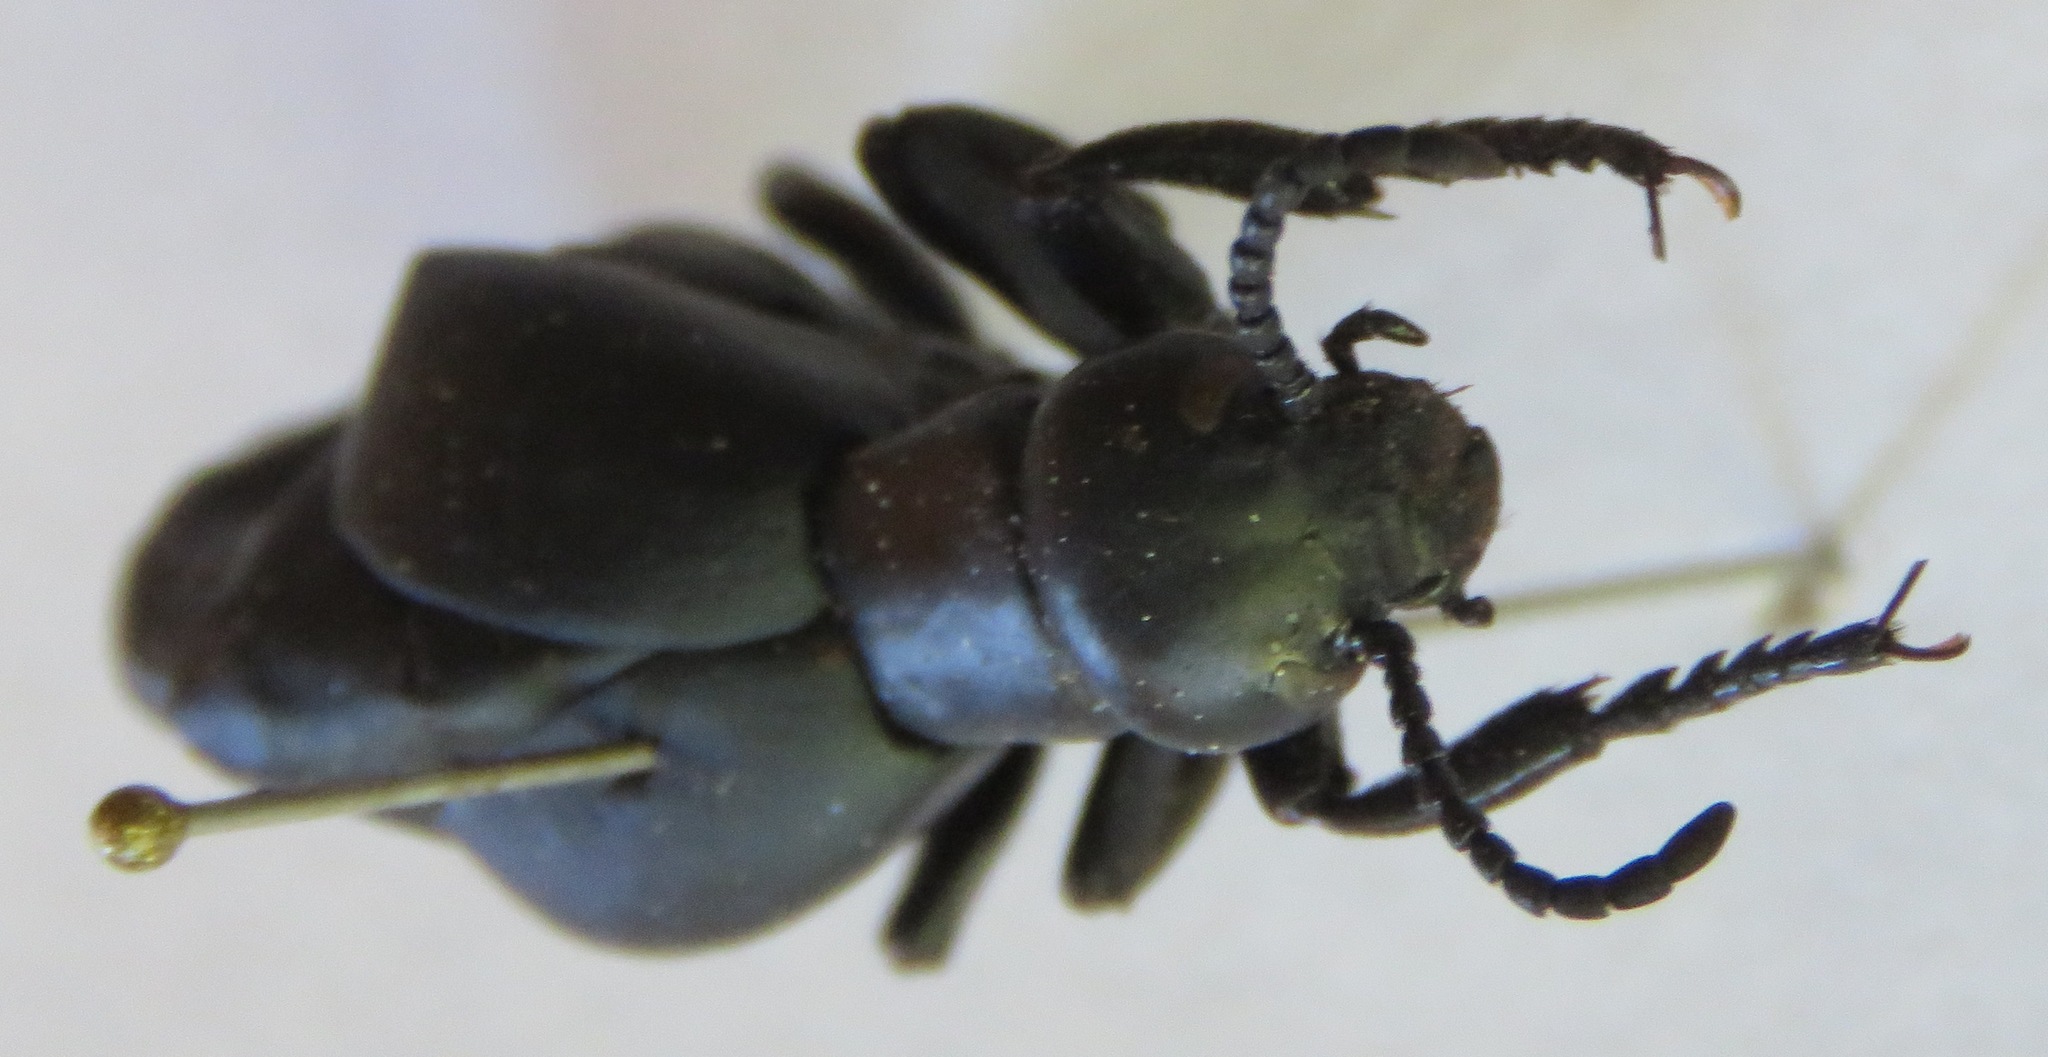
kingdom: Animalia
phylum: Arthropoda
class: Insecta
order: Coleoptera
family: Meloidae
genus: Meloe
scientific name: Meloe laevis
